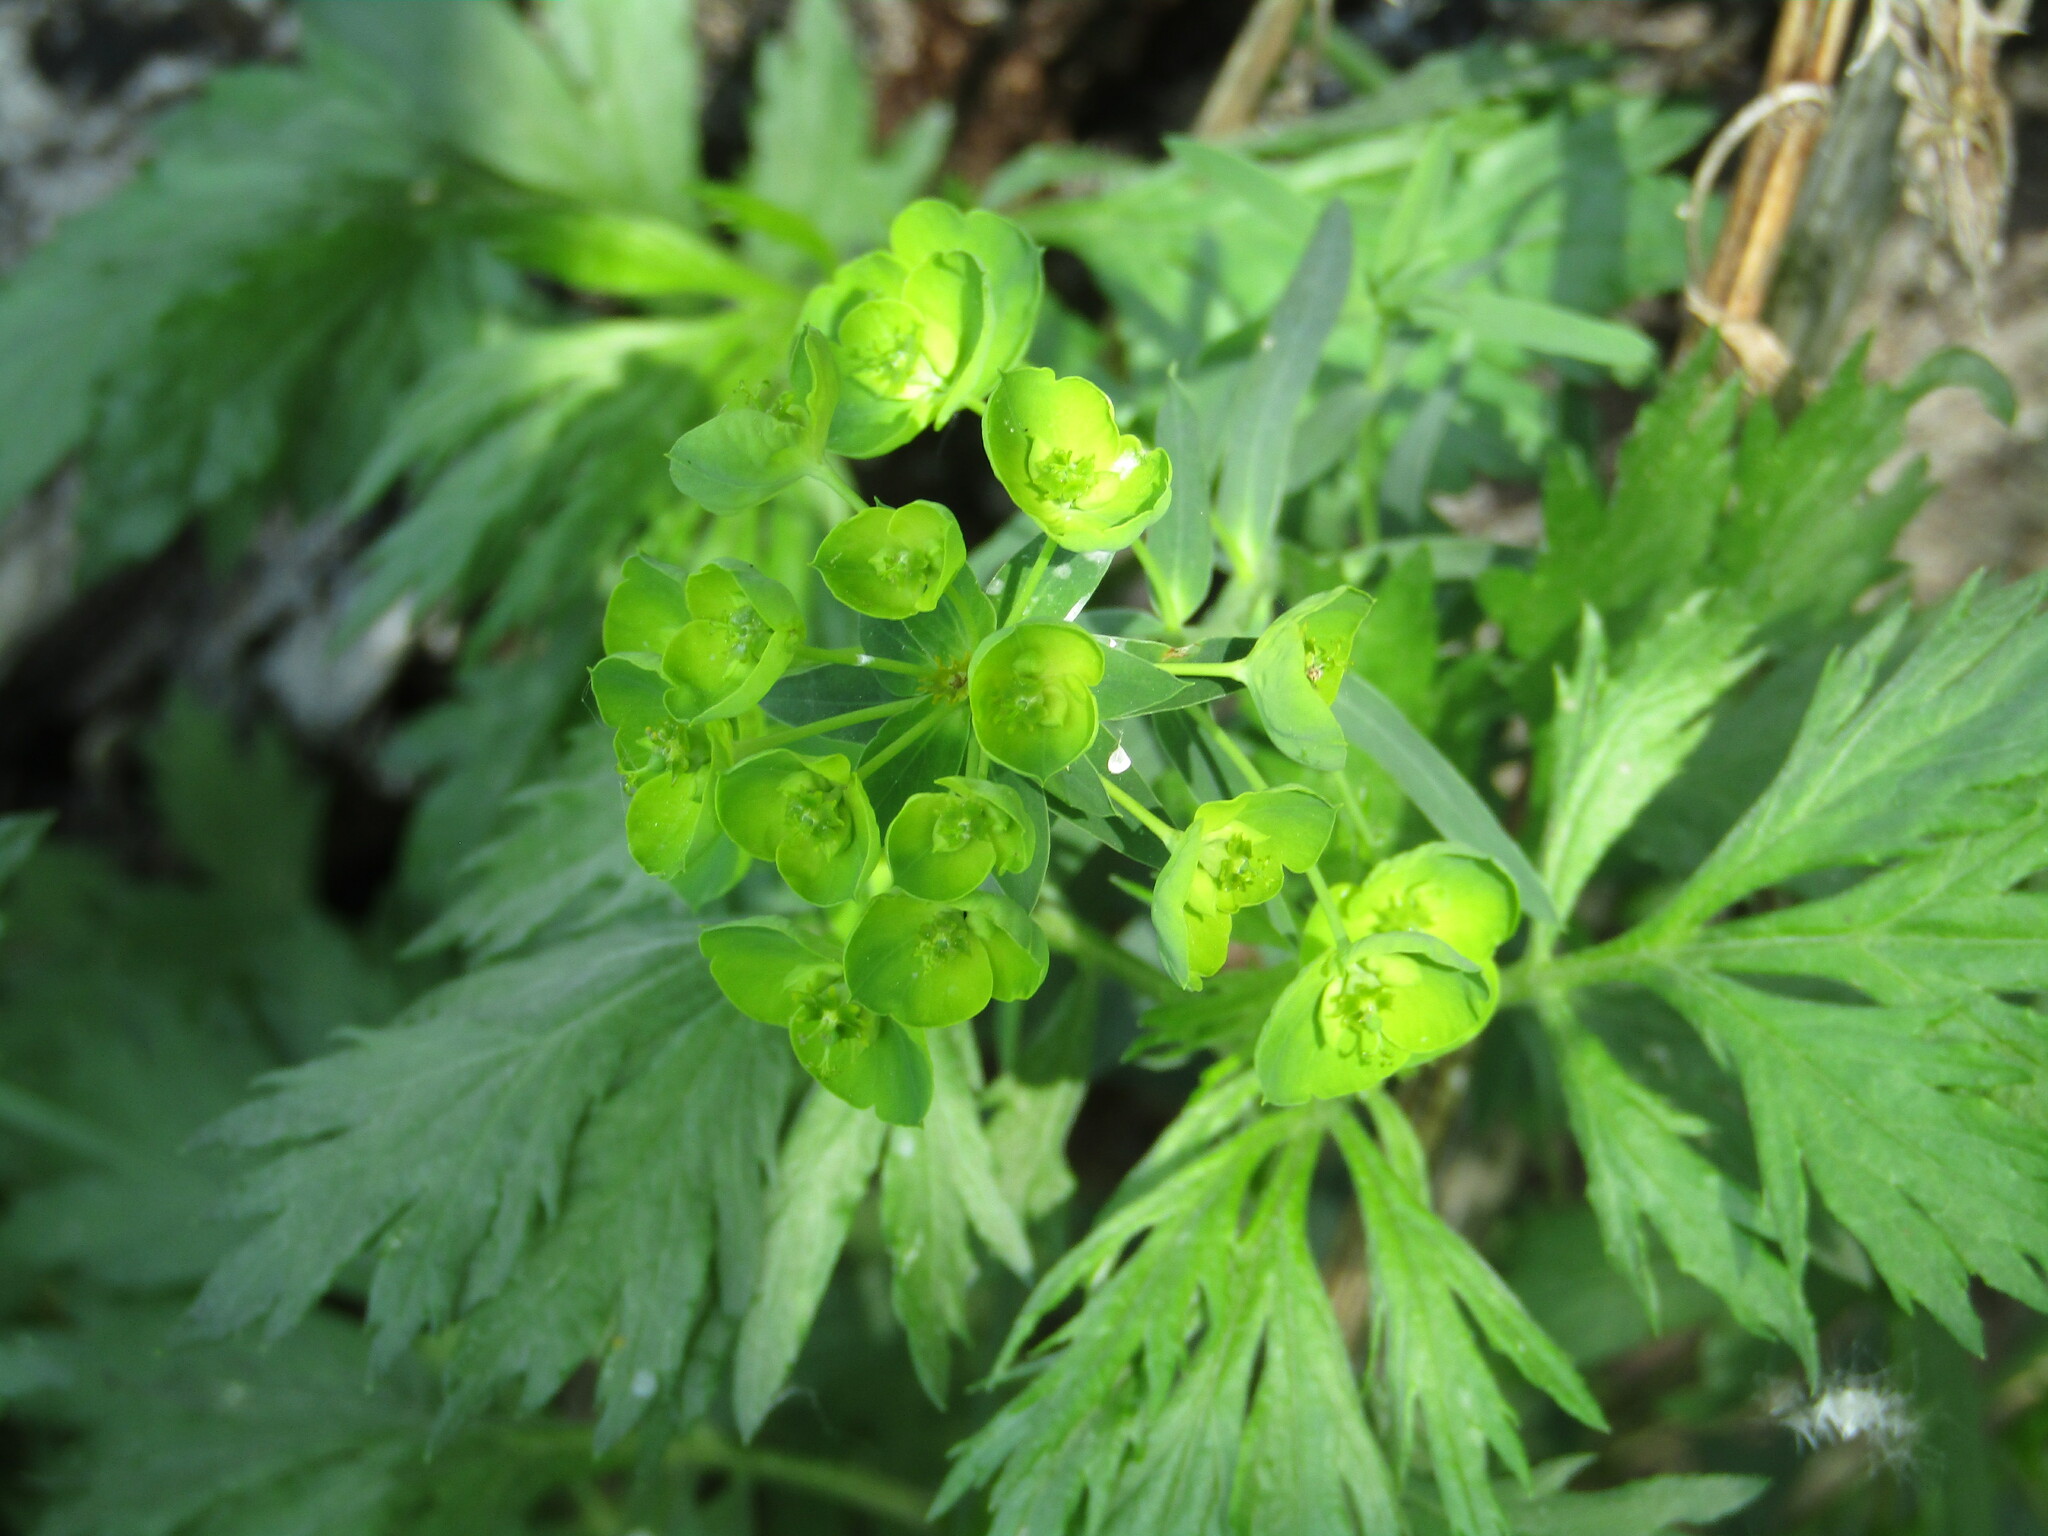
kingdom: Plantae
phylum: Tracheophyta
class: Magnoliopsida
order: Malpighiales
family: Euphorbiaceae
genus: Euphorbia
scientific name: Euphorbia virgata
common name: Leafy spurge
